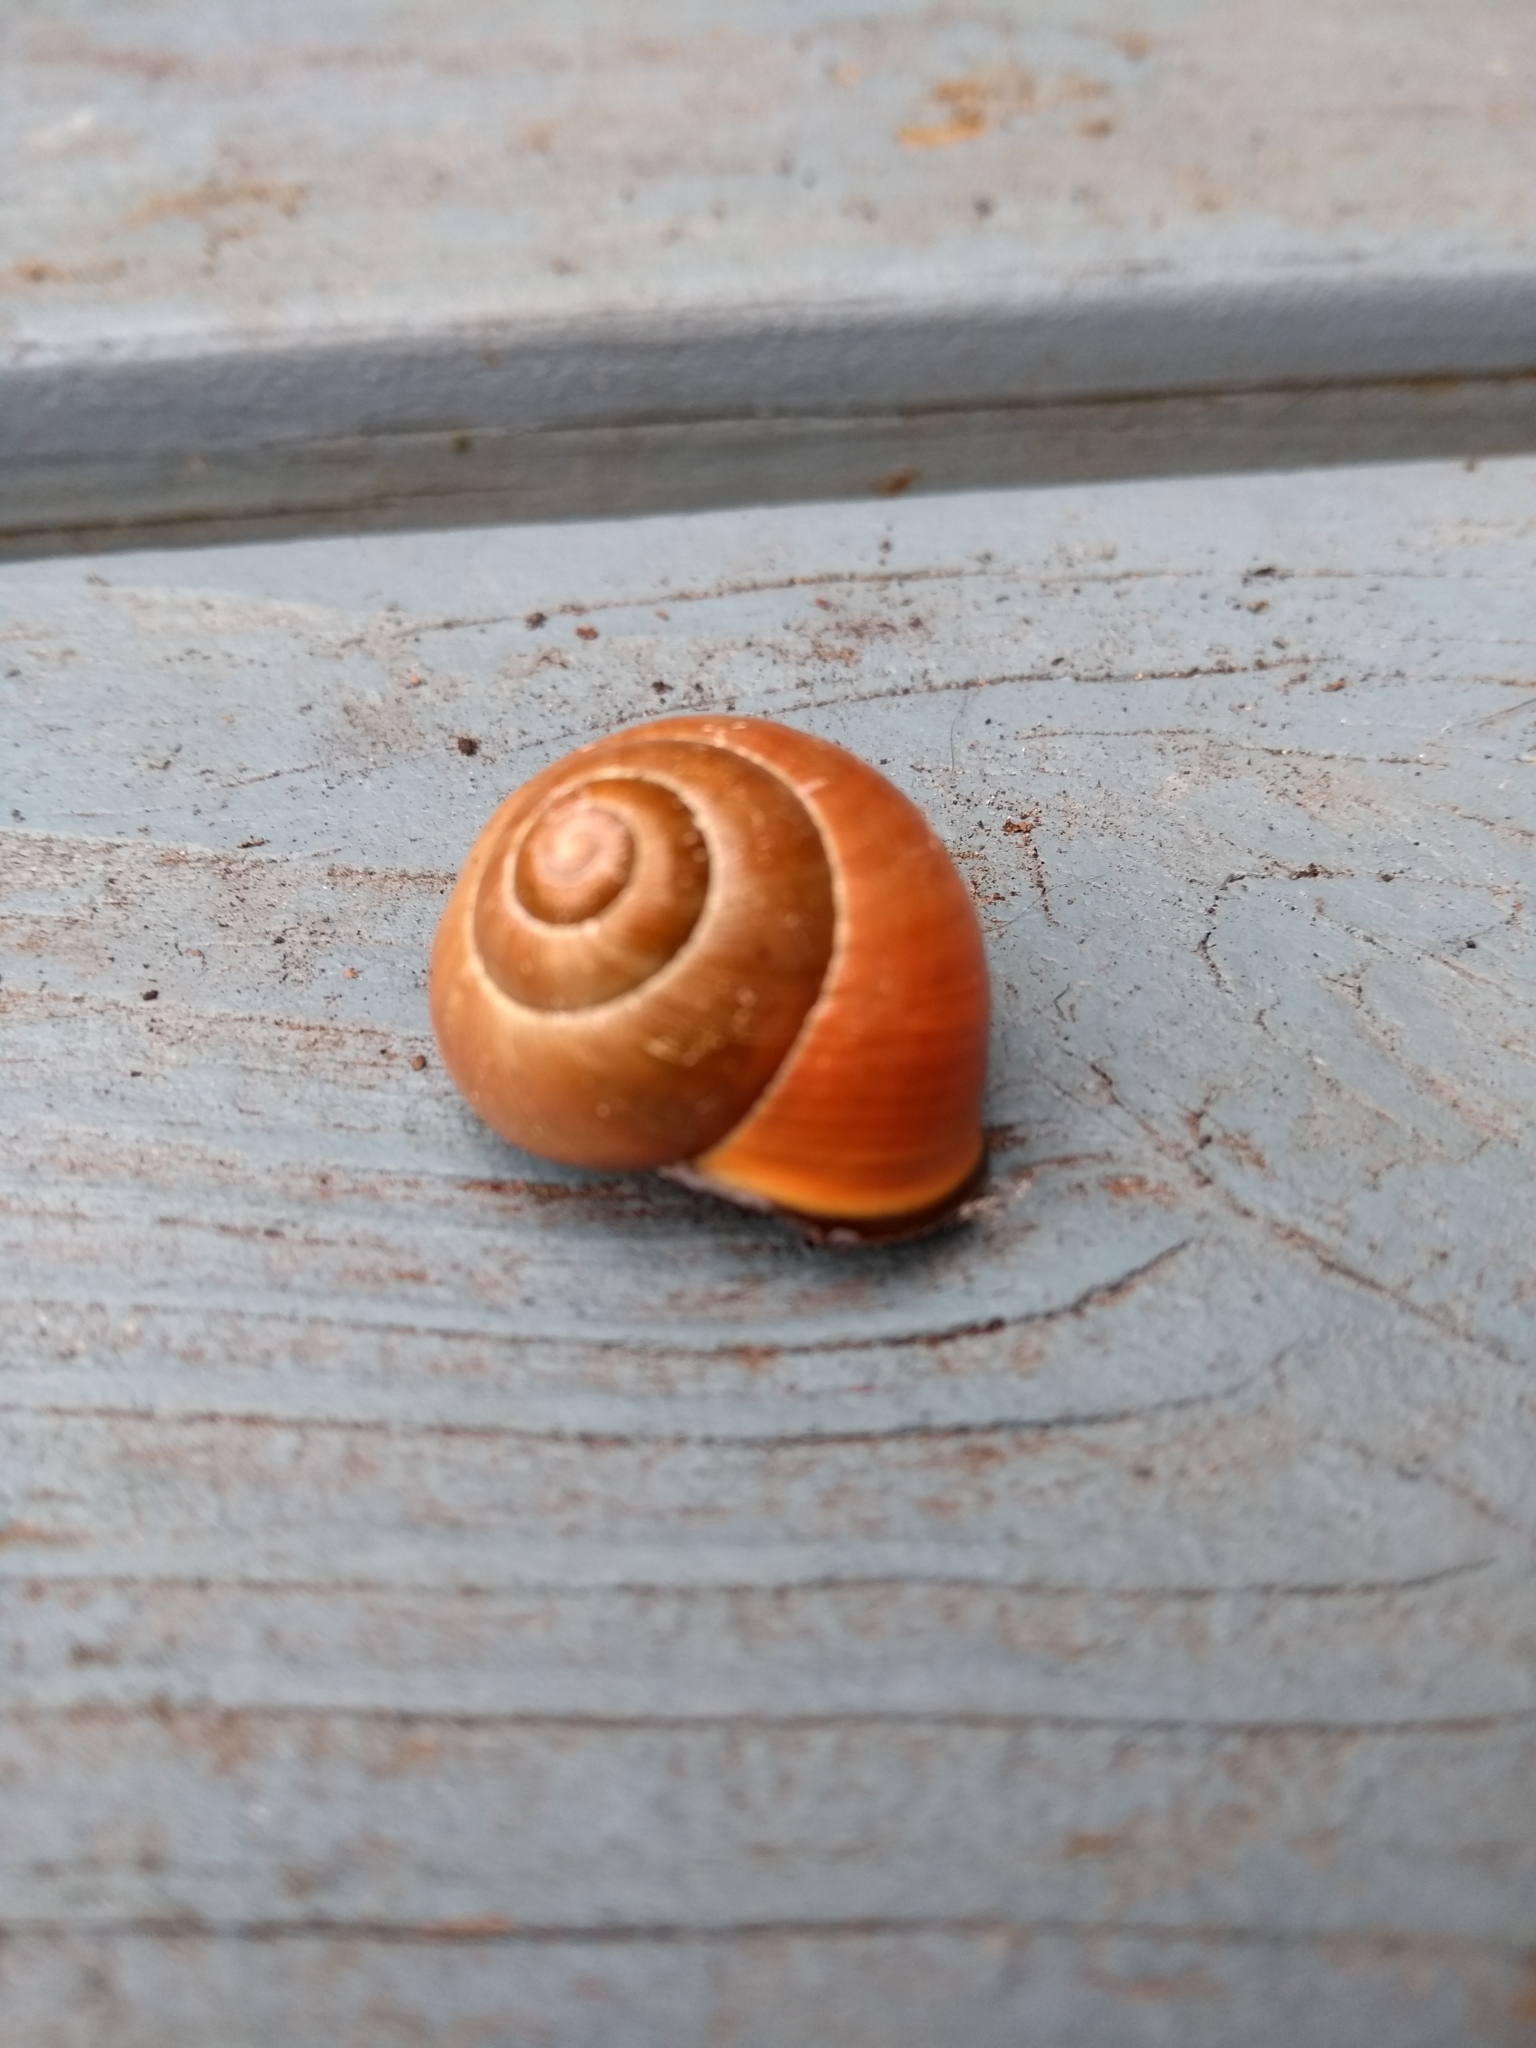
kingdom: Animalia
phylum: Mollusca
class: Gastropoda
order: Stylommatophora
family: Helicidae
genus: Cepaea
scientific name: Cepaea nemoralis
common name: Grovesnail
